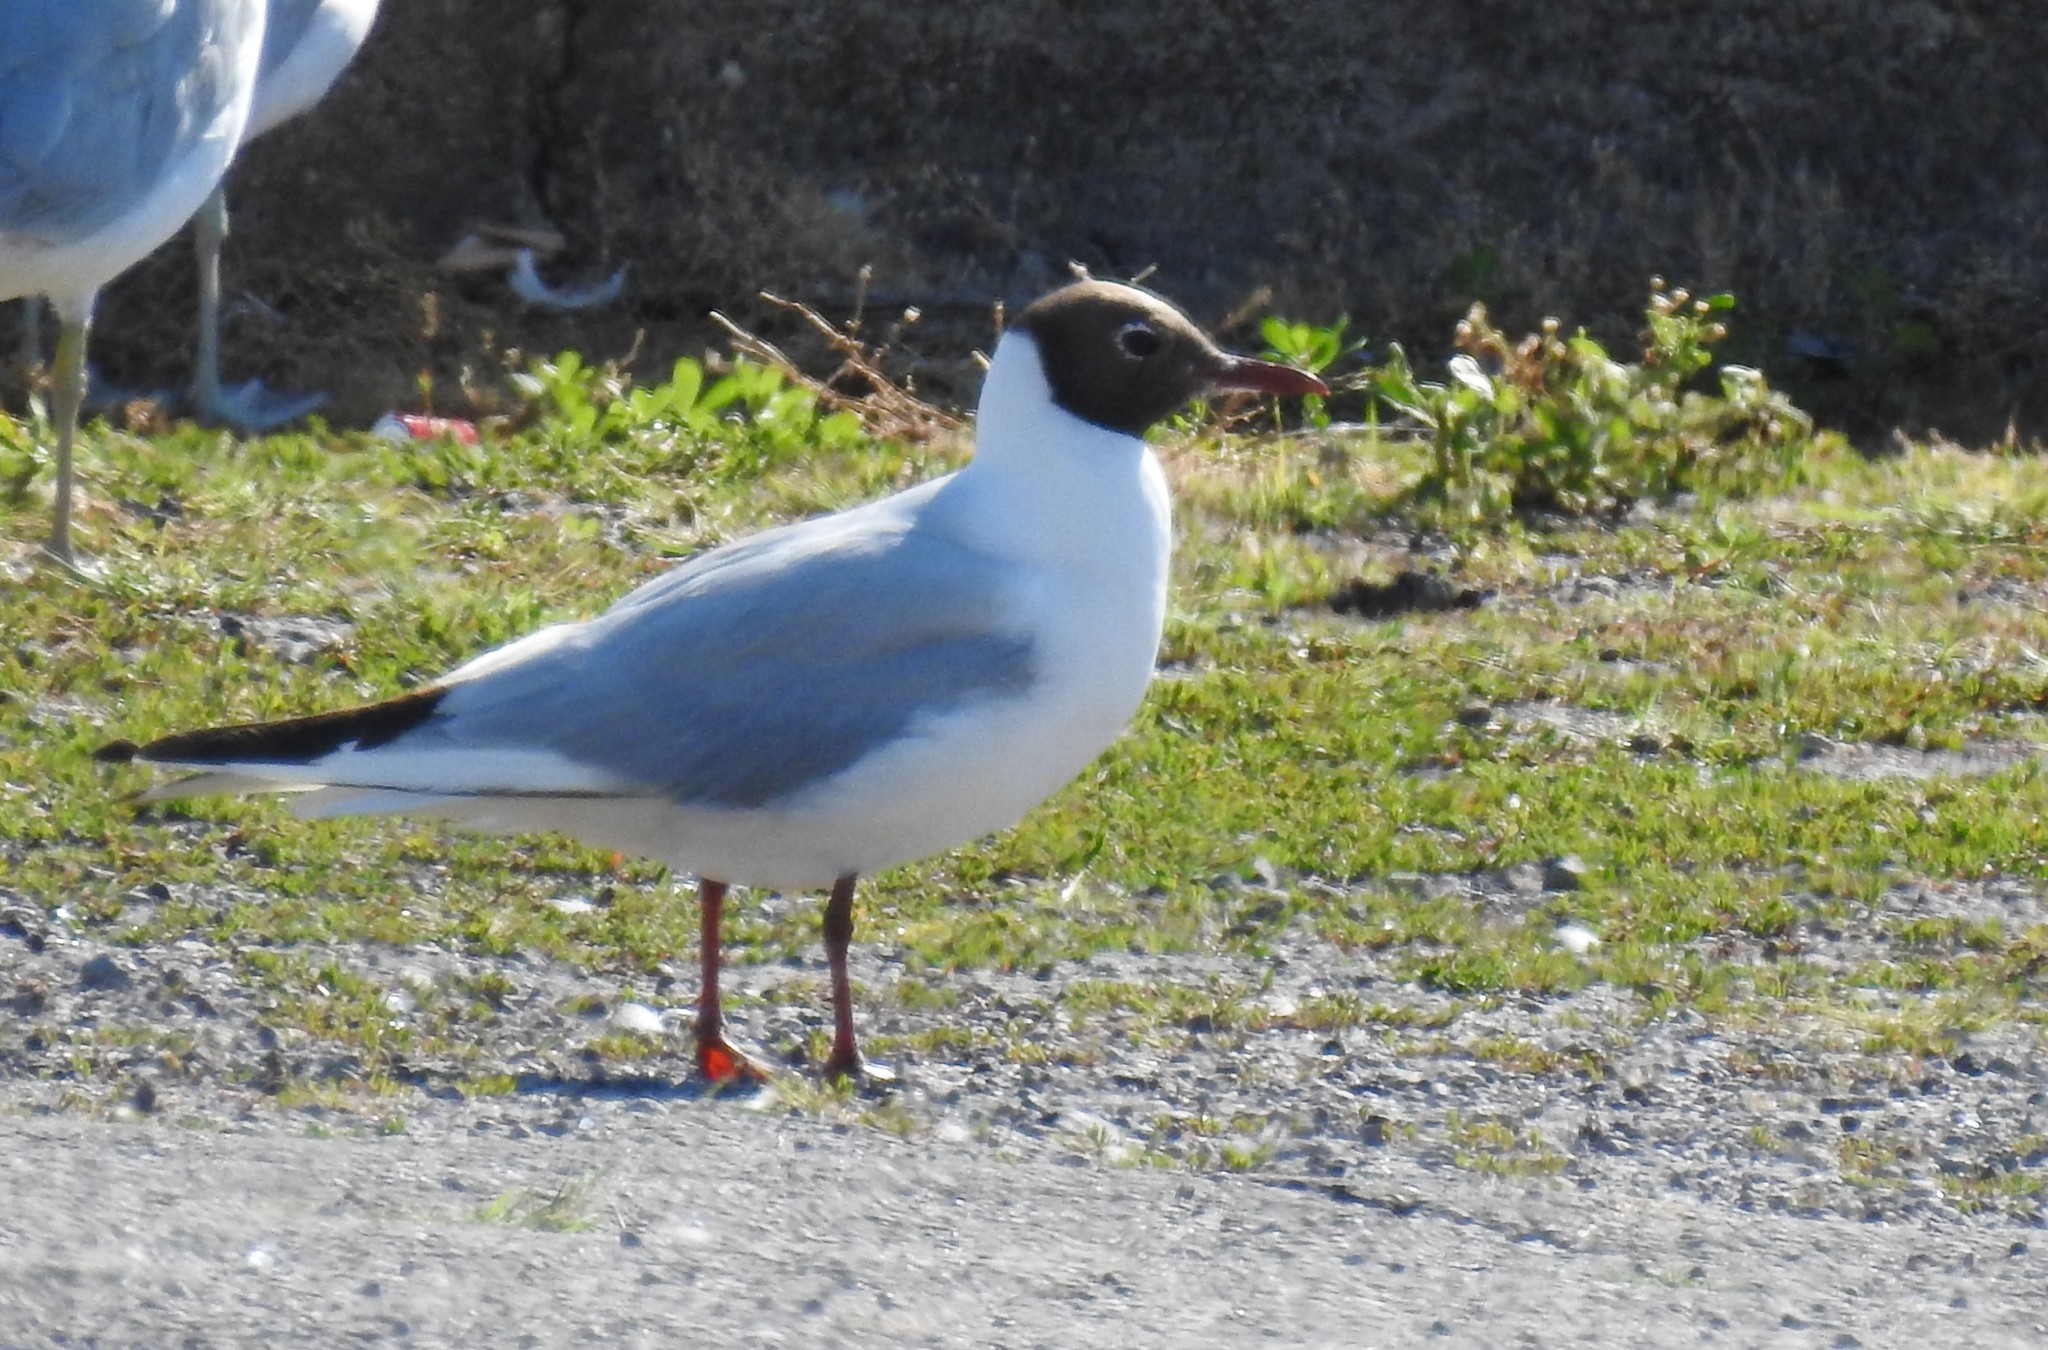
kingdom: Animalia
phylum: Chordata
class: Aves
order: Charadriiformes
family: Laridae
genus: Chroicocephalus
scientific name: Chroicocephalus ridibundus
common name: Black-headed gull
